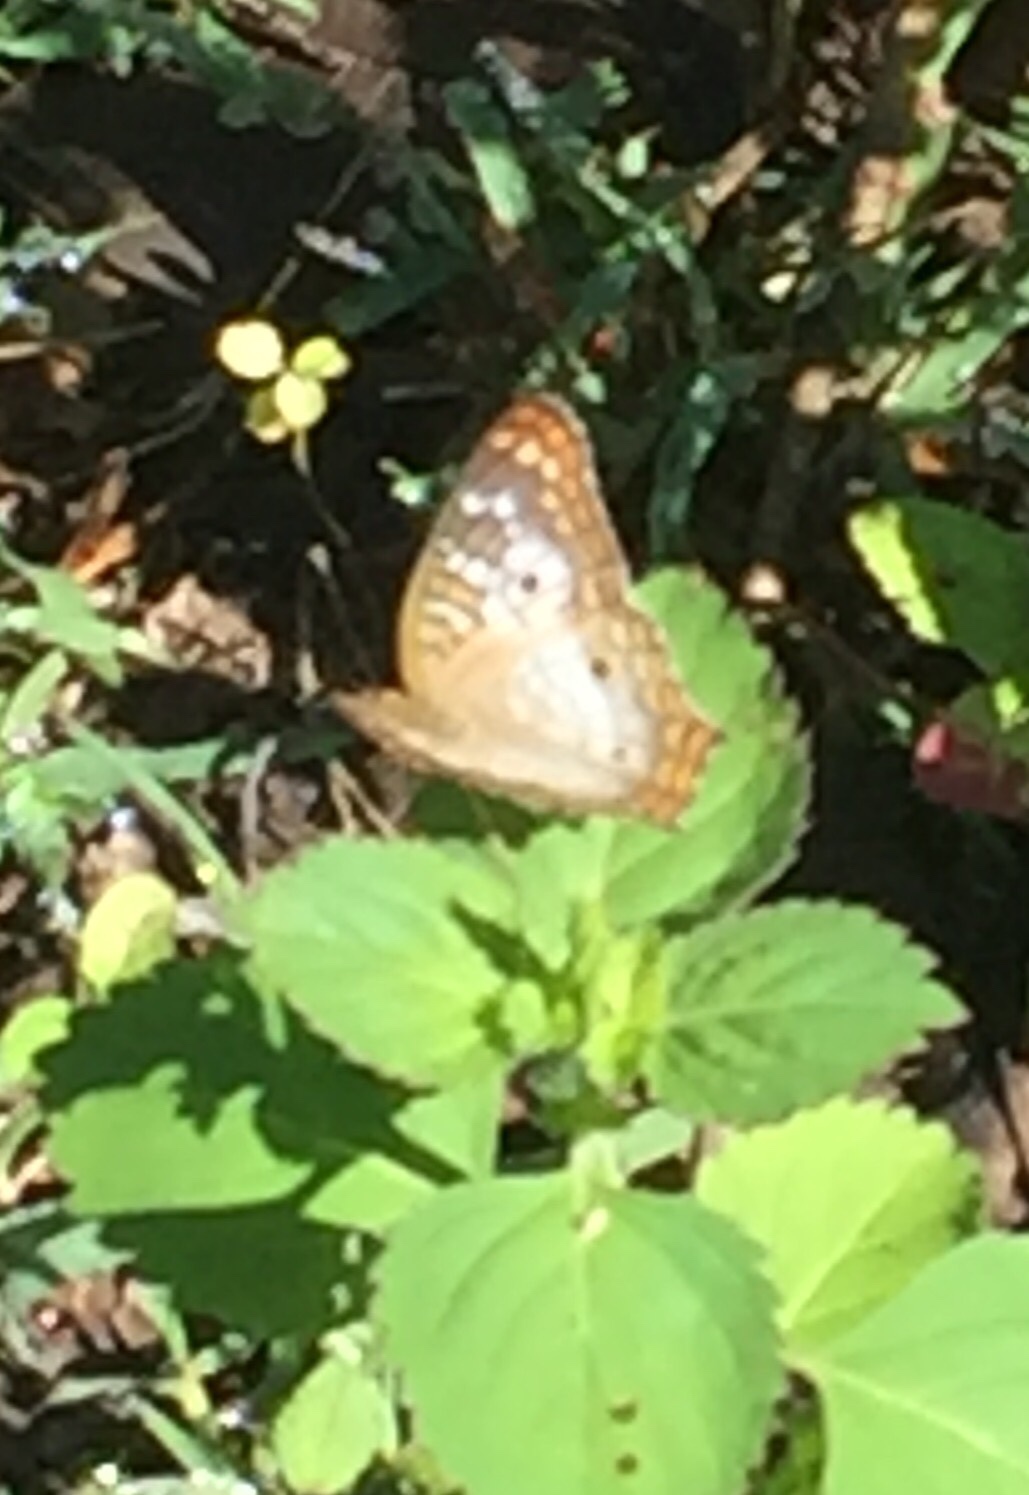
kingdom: Animalia
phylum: Arthropoda
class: Insecta
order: Lepidoptera
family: Nymphalidae
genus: Anartia
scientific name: Anartia jatrophae
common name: White peacock
